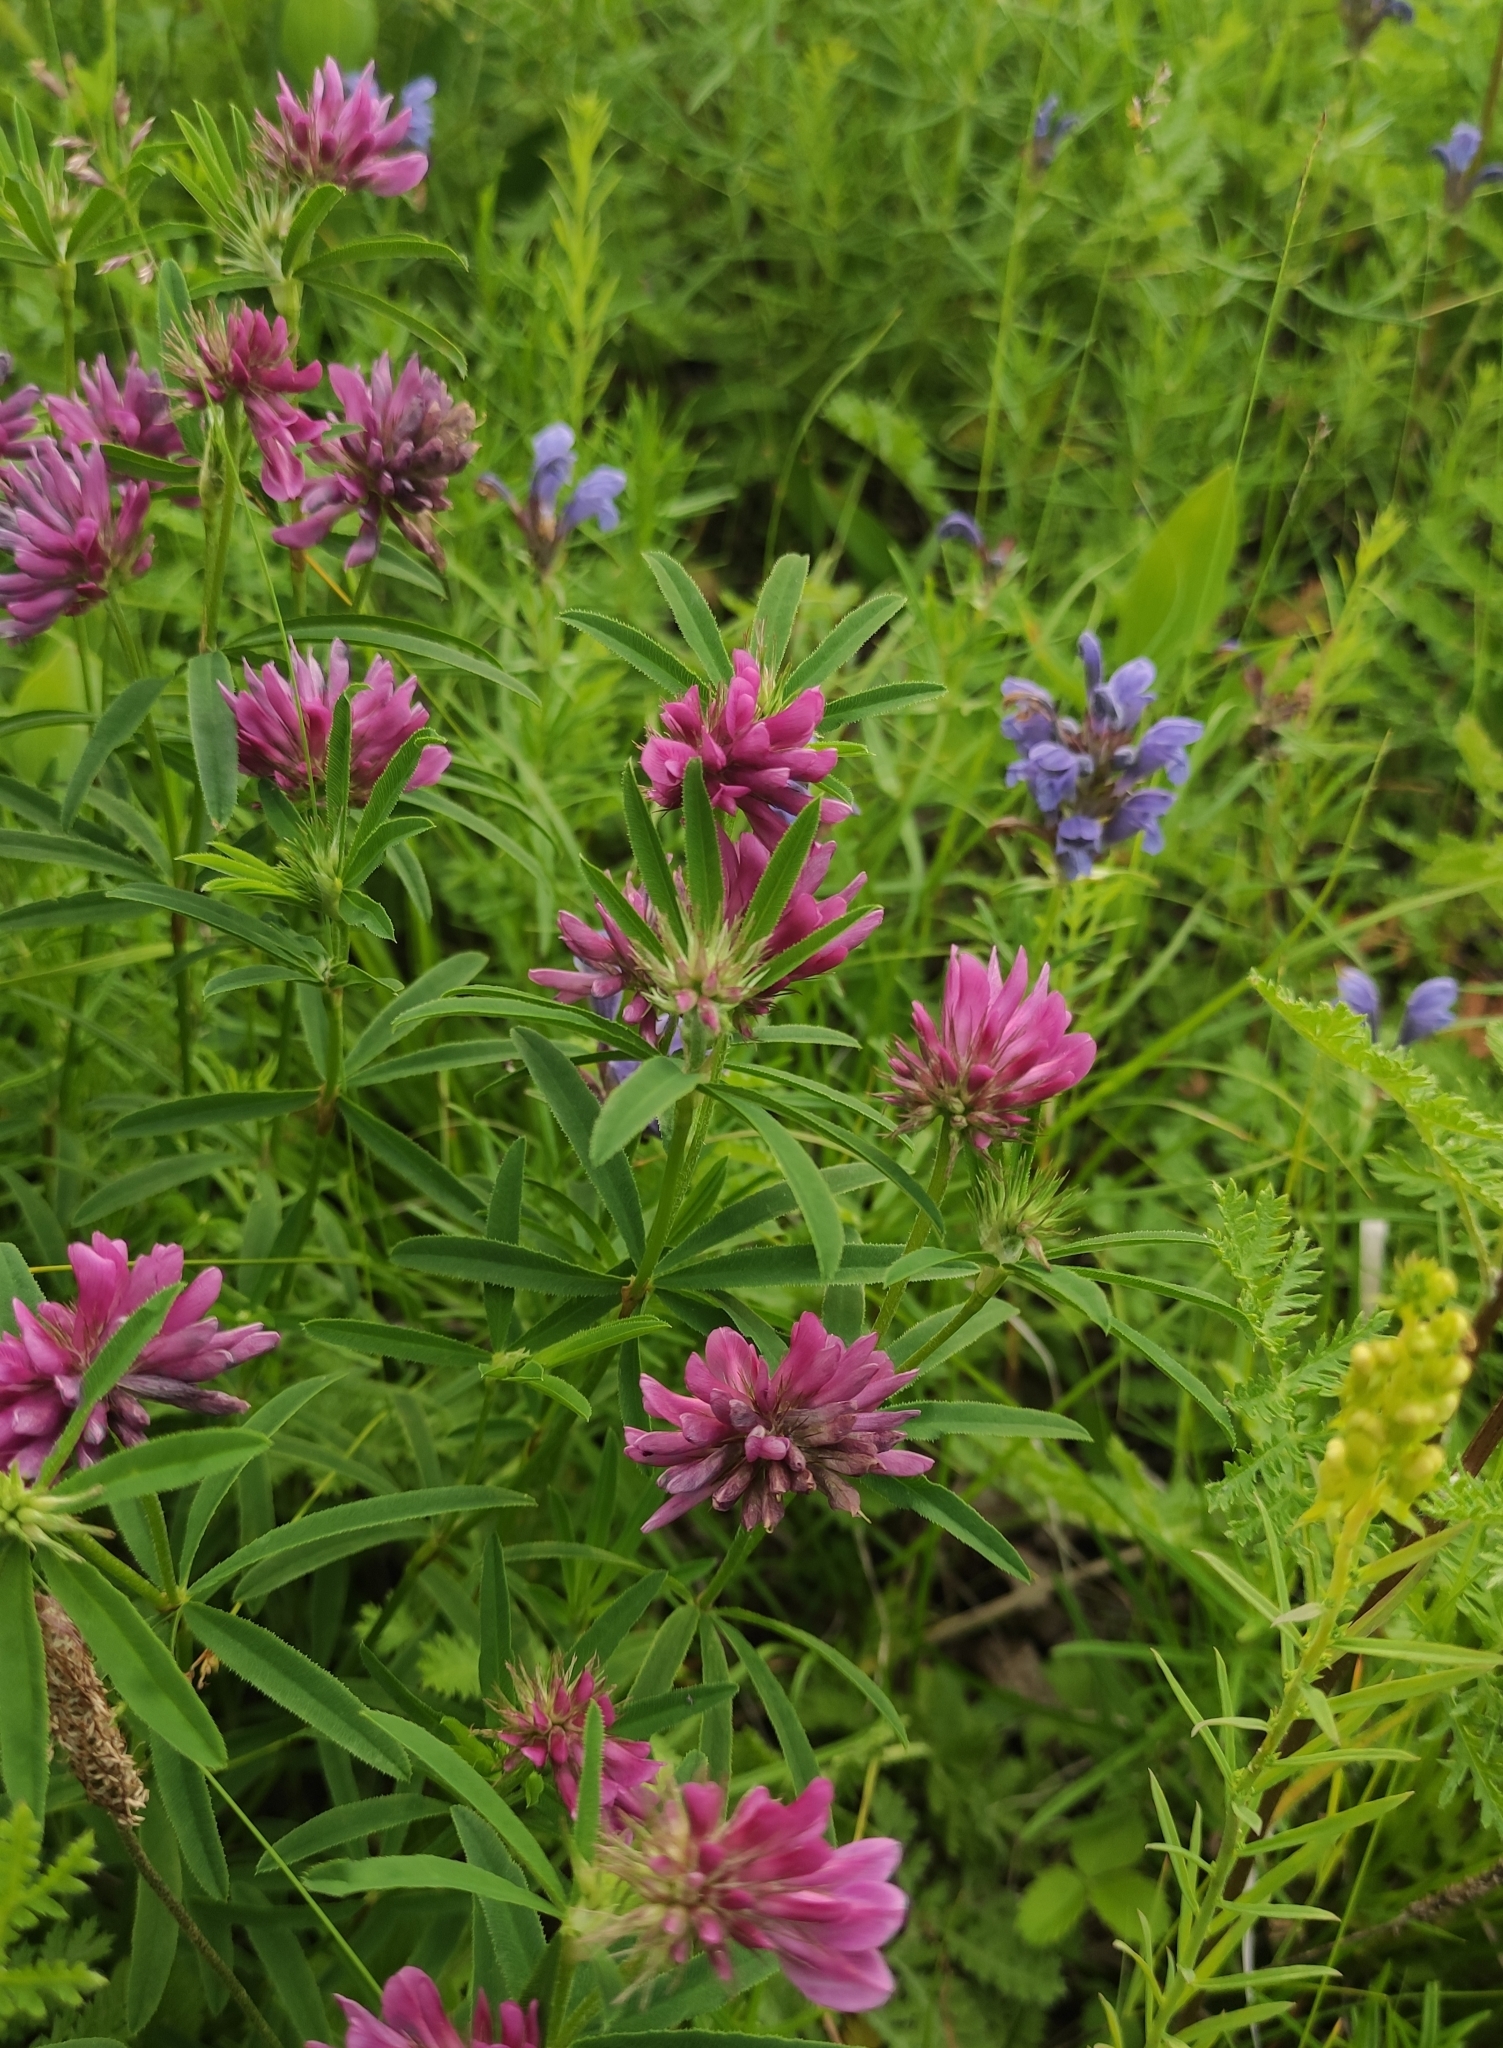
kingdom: Plantae
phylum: Tracheophyta
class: Magnoliopsida
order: Fabales
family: Fabaceae
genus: Trifolium
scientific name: Trifolium lupinaster
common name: Lupine clover
